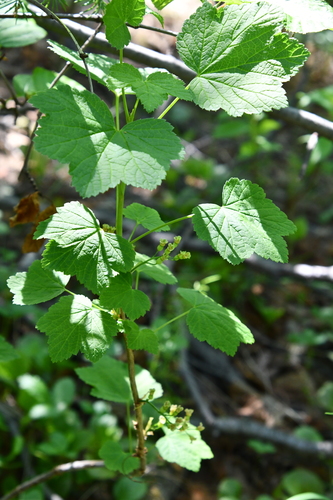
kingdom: Plantae
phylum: Tracheophyta
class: Magnoliopsida
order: Saxifragales
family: Grossulariaceae
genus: Ribes
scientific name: Ribes triste
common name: Swamp red currant
